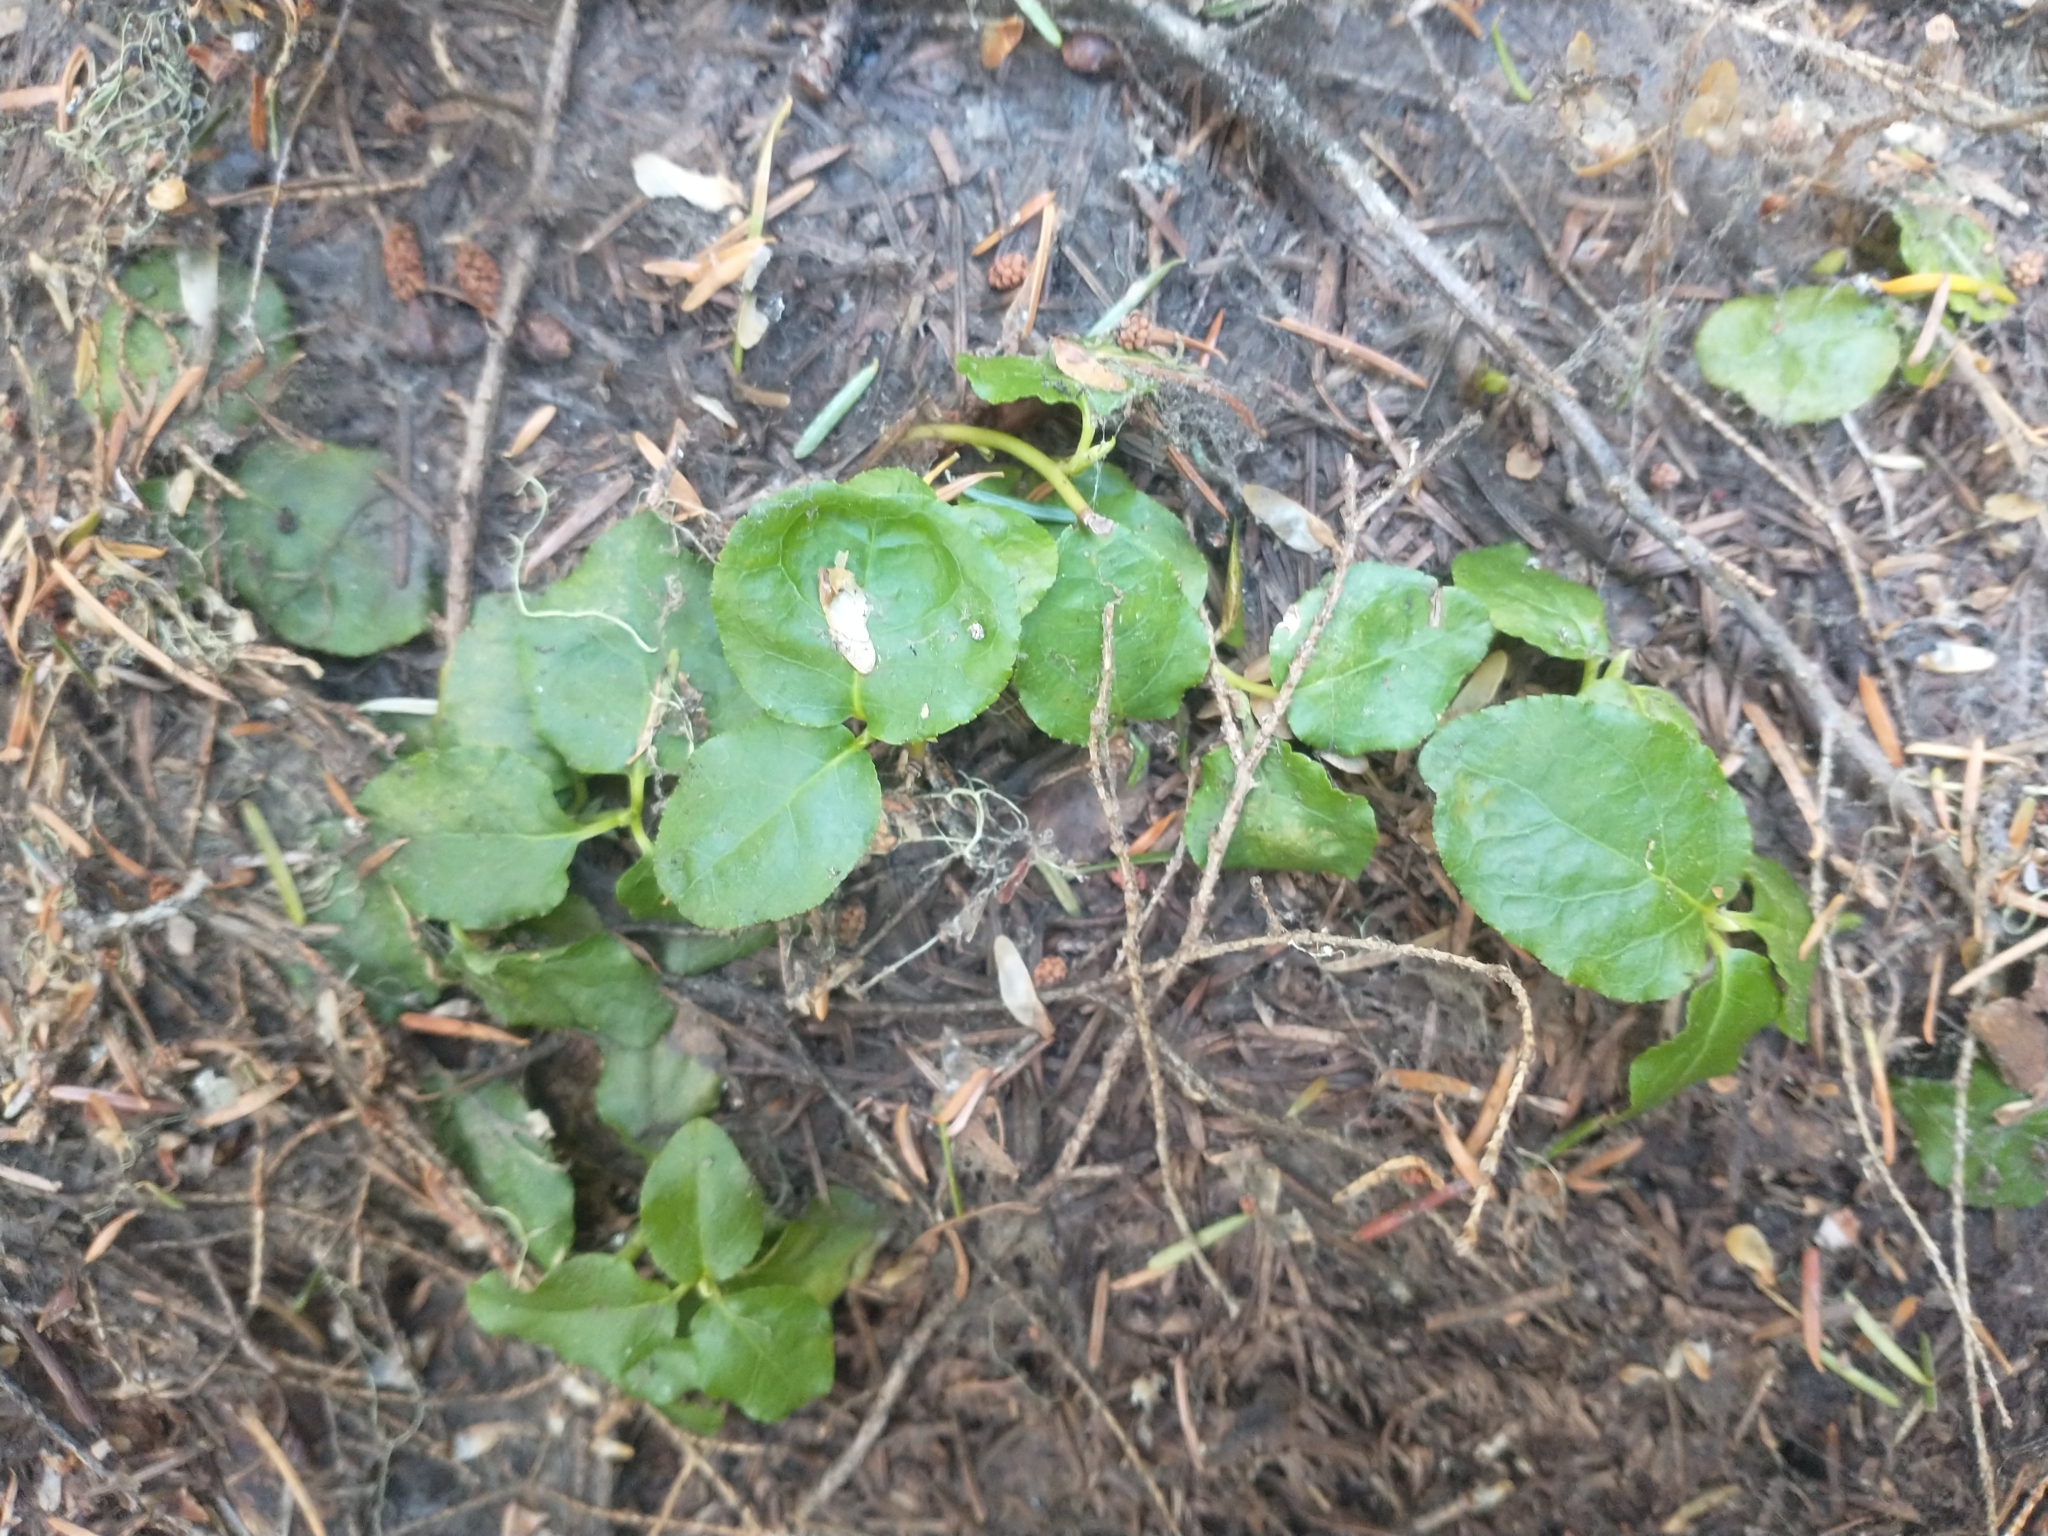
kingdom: Plantae
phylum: Tracheophyta
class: Magnoliopsida
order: Ericales
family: Ericaceae
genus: Orthilia
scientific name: Orthilia secunda
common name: One-sided orthilia
